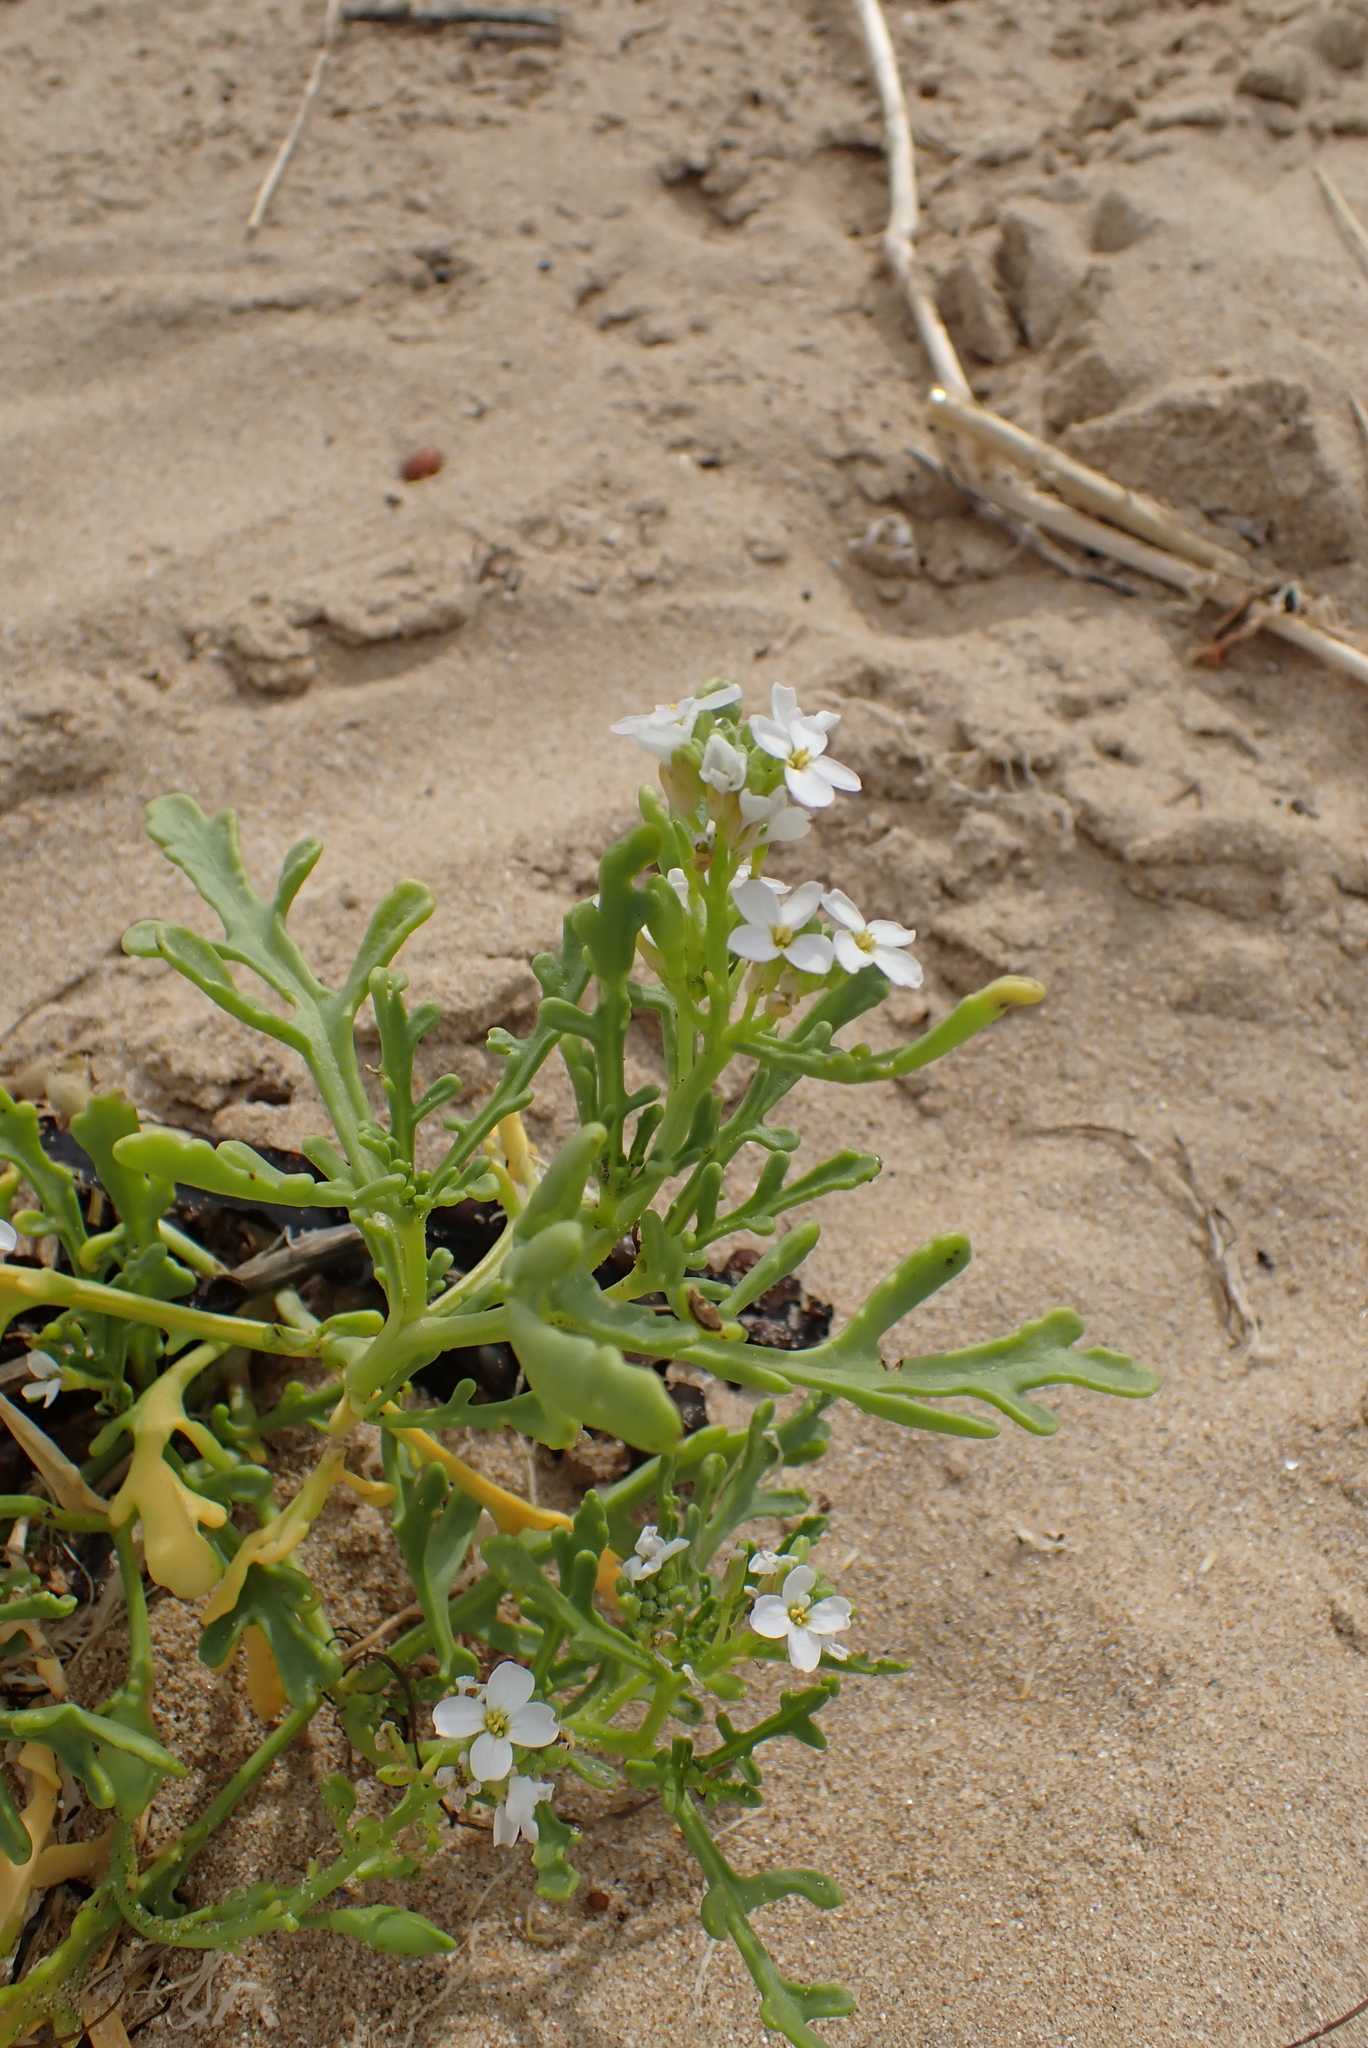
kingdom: Plantae
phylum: Tracheophyta
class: Magnoliopsida
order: Brassicales
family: Brassicaceae
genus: Cakile
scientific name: Cakile maritima
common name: Sea rocket
